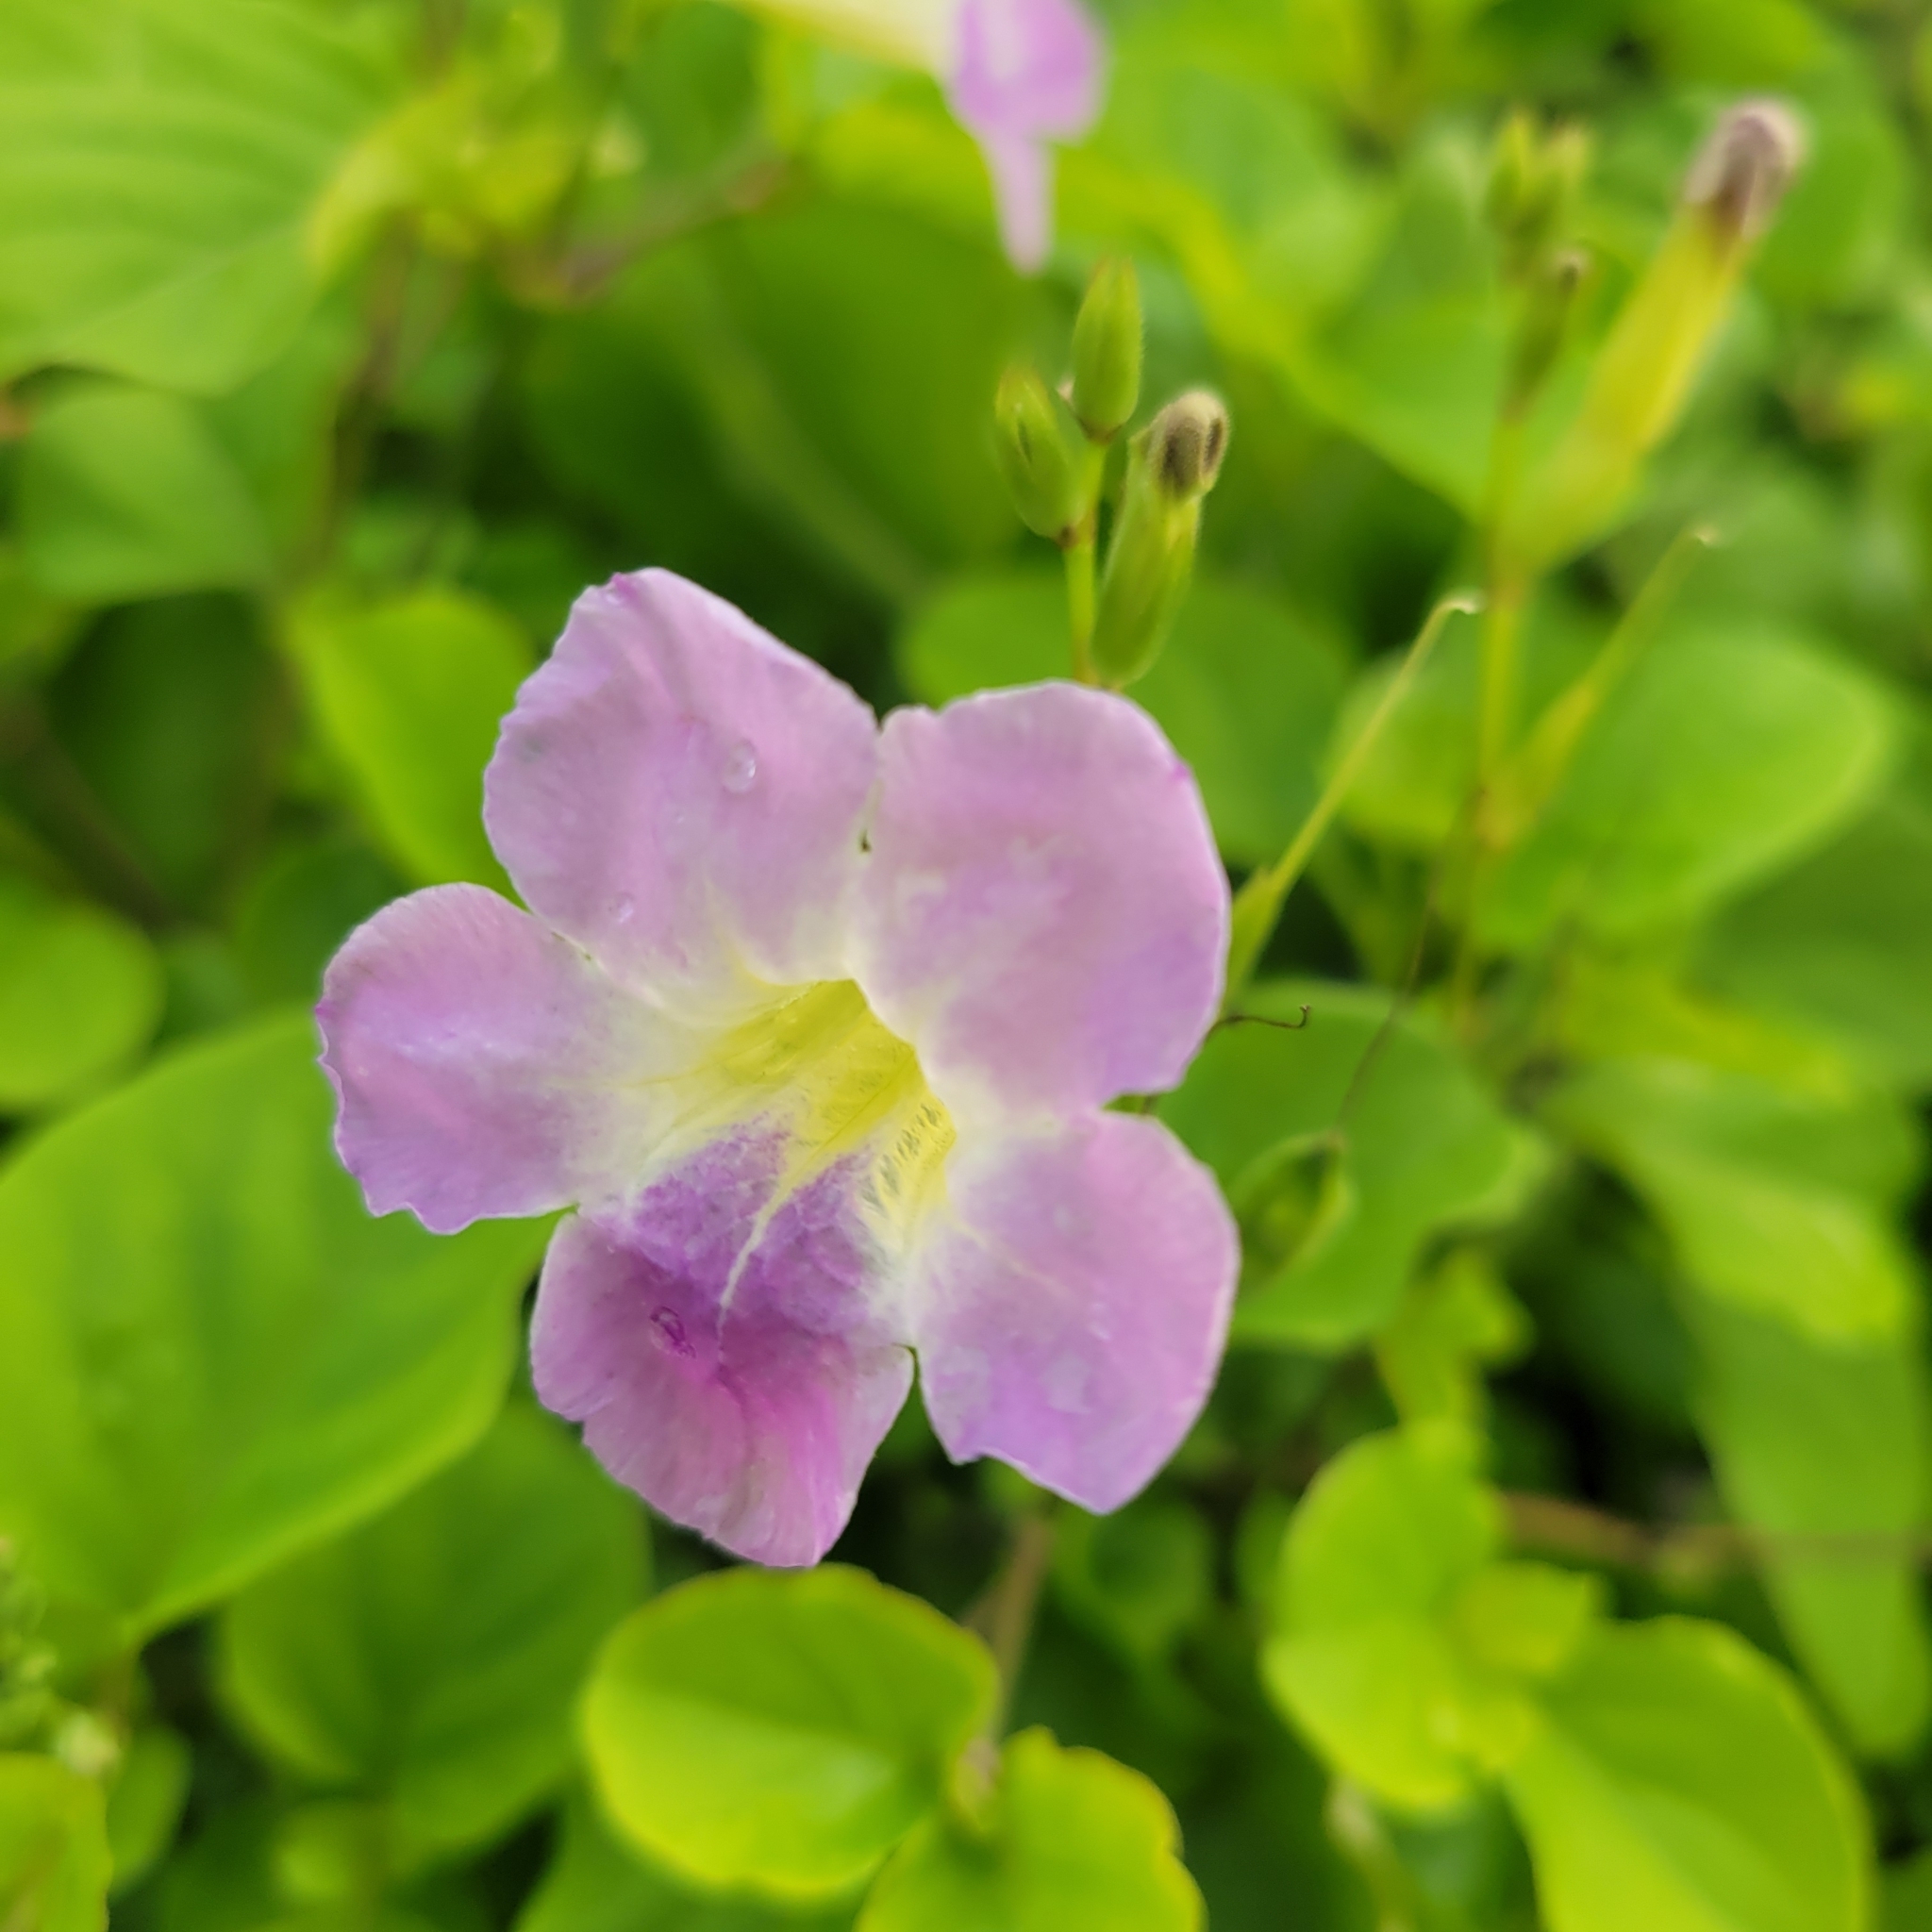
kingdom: Plantae
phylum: Tracheophyta
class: Magnoliopsida
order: Lamiales
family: Acanthaceae
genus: Asystasia
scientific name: Asystasia gangetica
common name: Chinese violet
